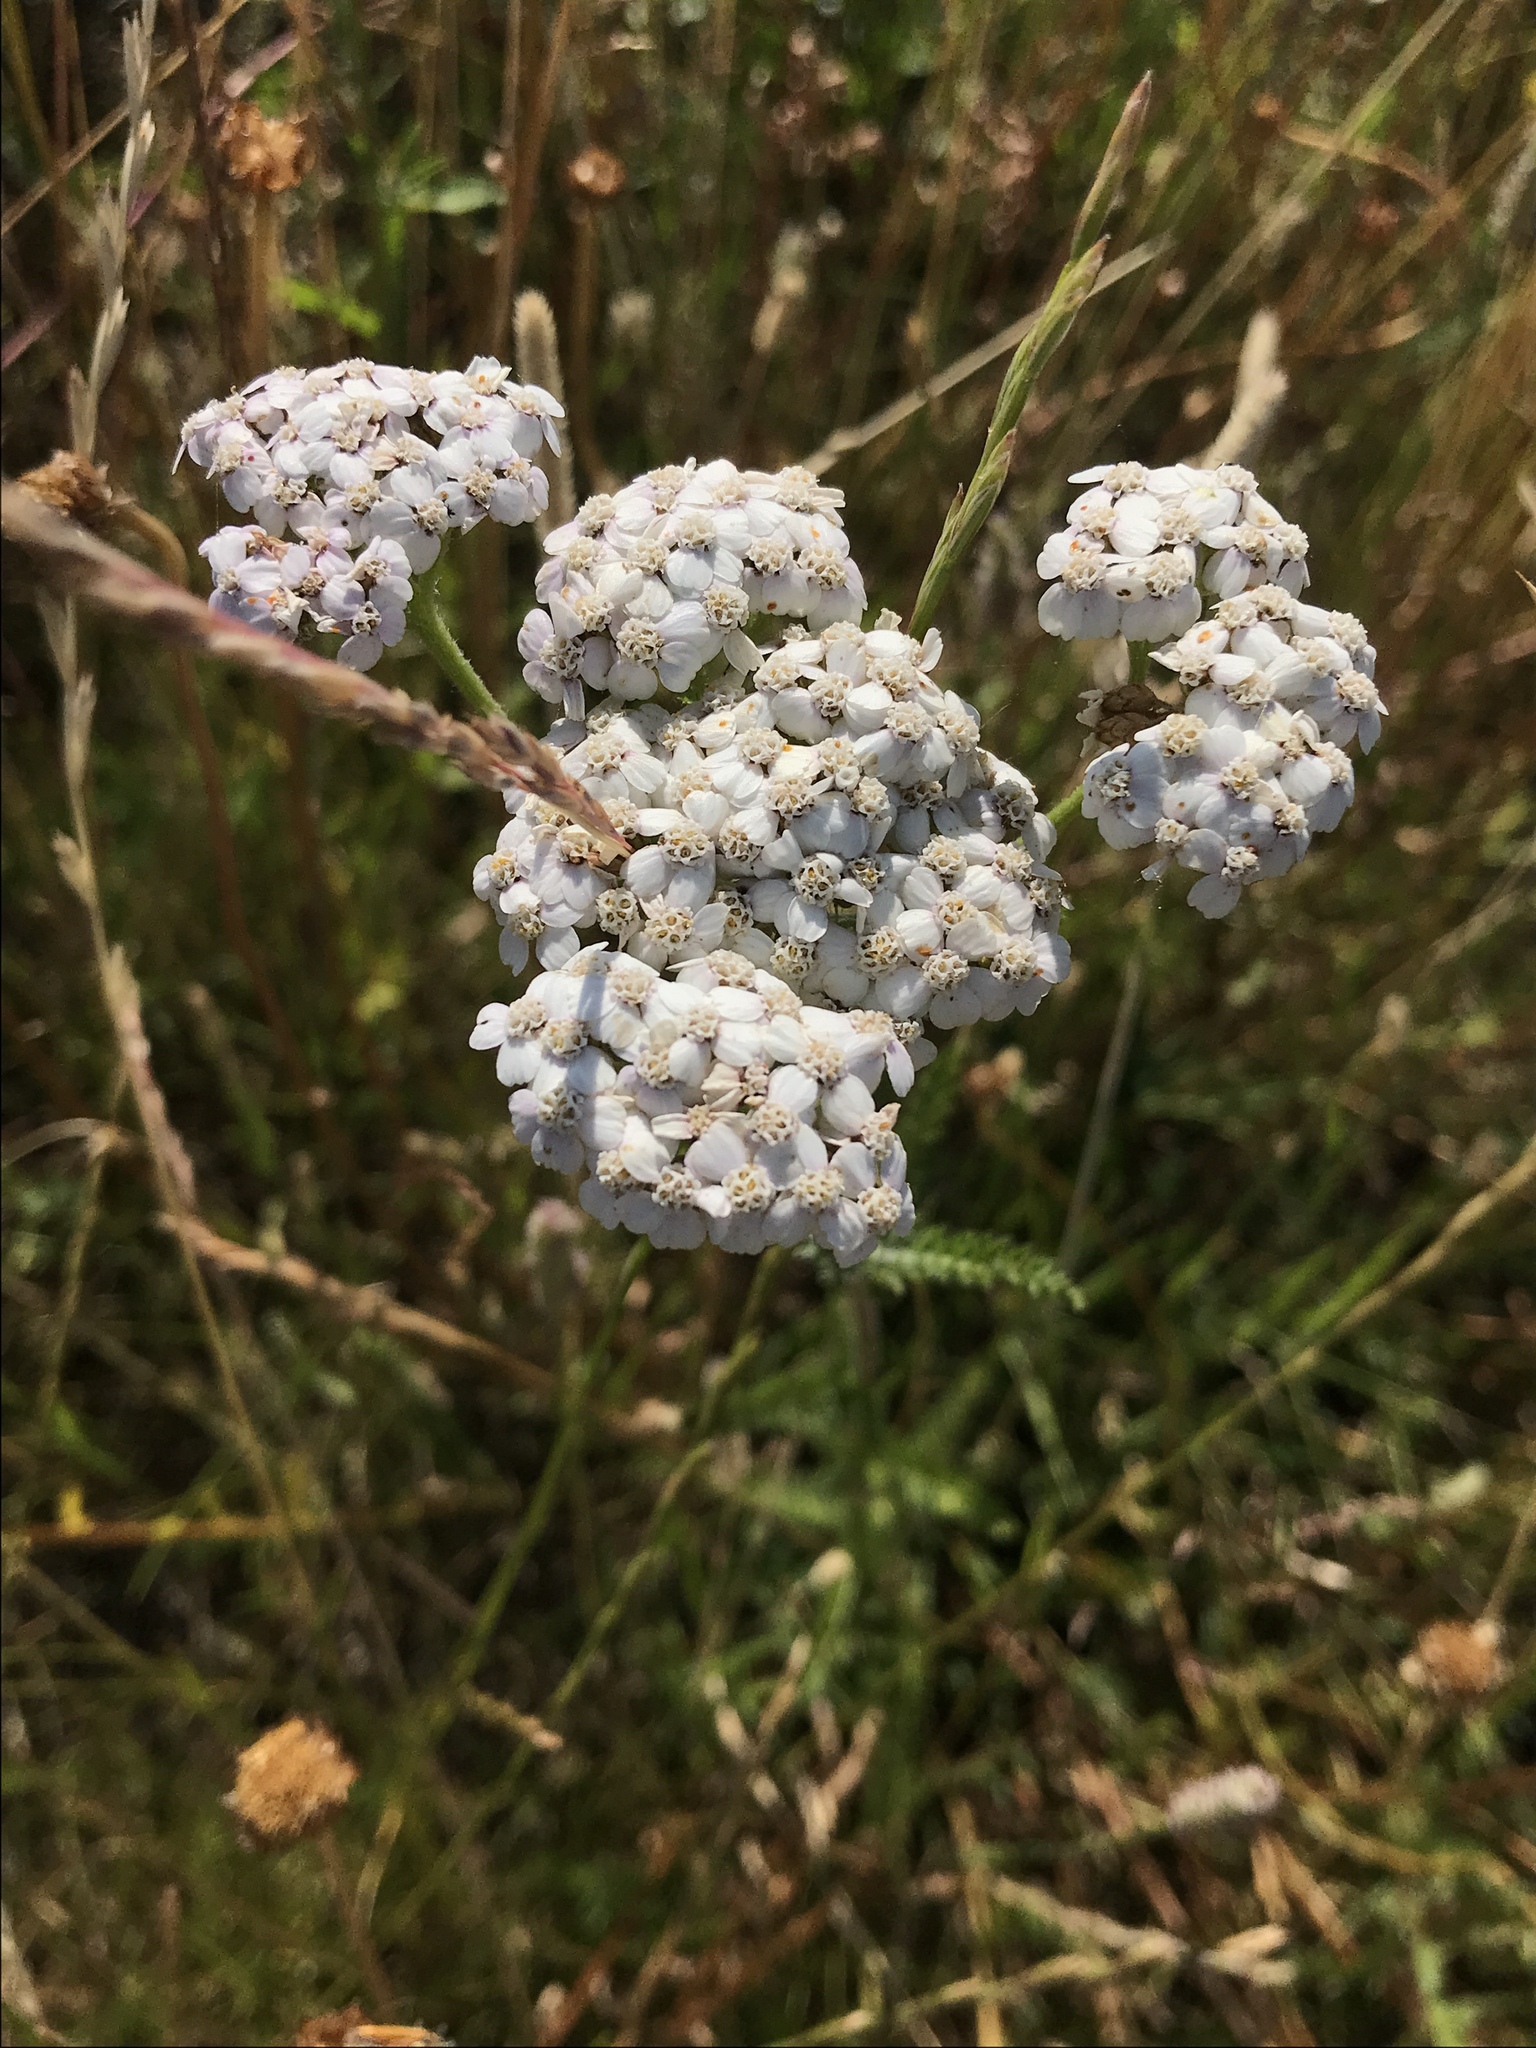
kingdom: Plantae
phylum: Tracheophyta
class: Magnoliopsida
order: Asterales
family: Asteraceae
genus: Achillea
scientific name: Achillea millefolium
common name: Yarrow
